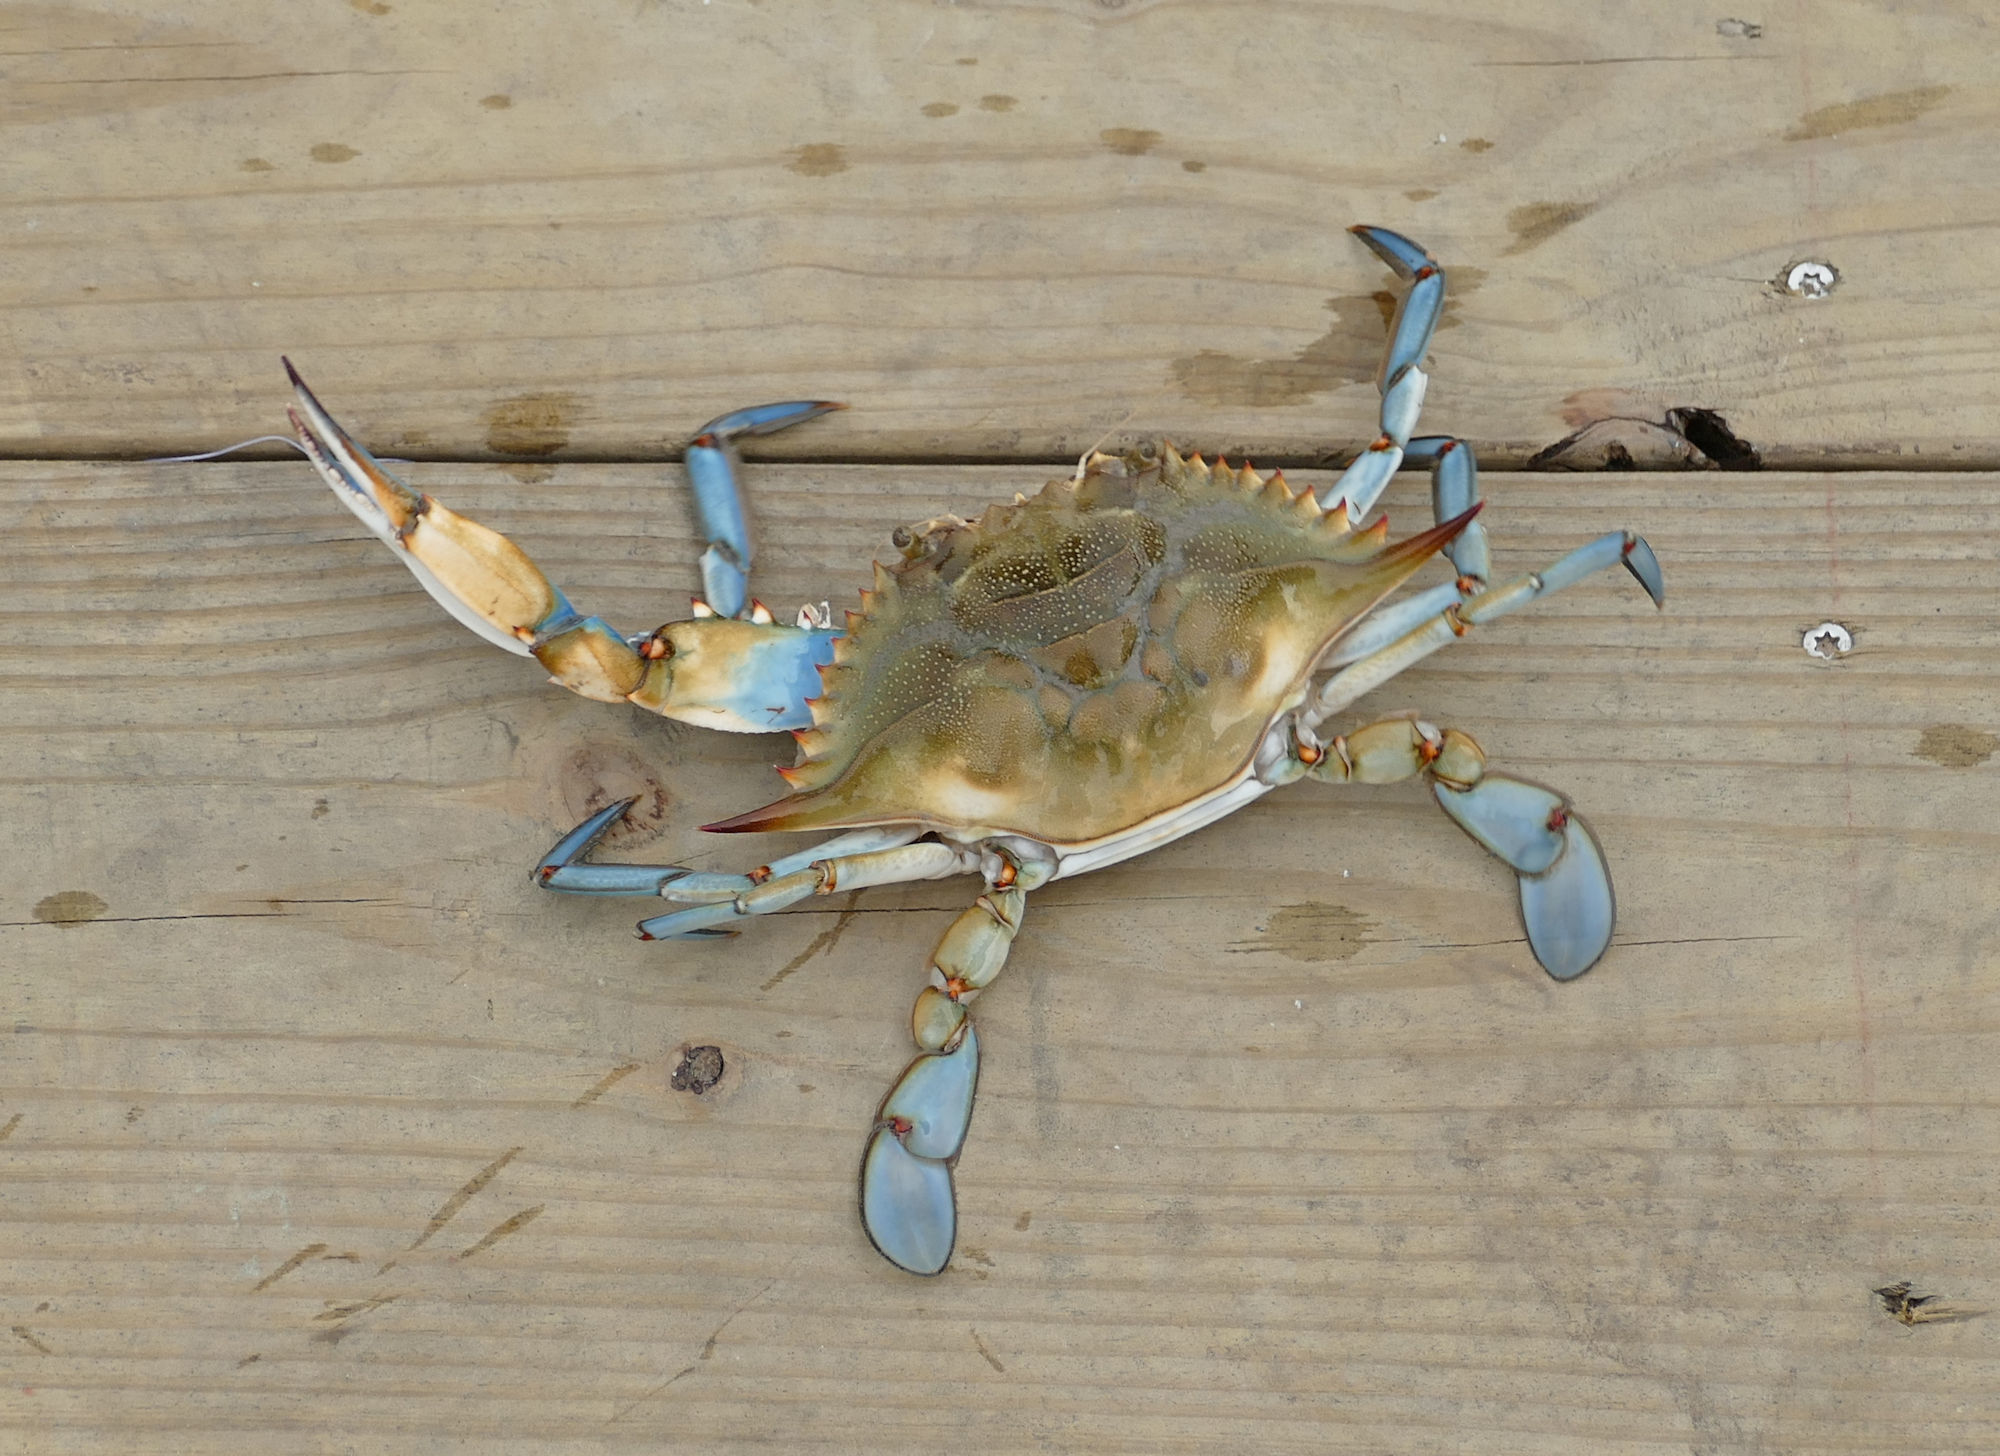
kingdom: Animalia
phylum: Arthropoda
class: Malacostraca
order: Decapoda
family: Portunidae
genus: Callinectes
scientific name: Callinectes sapidus
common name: Blue crab
